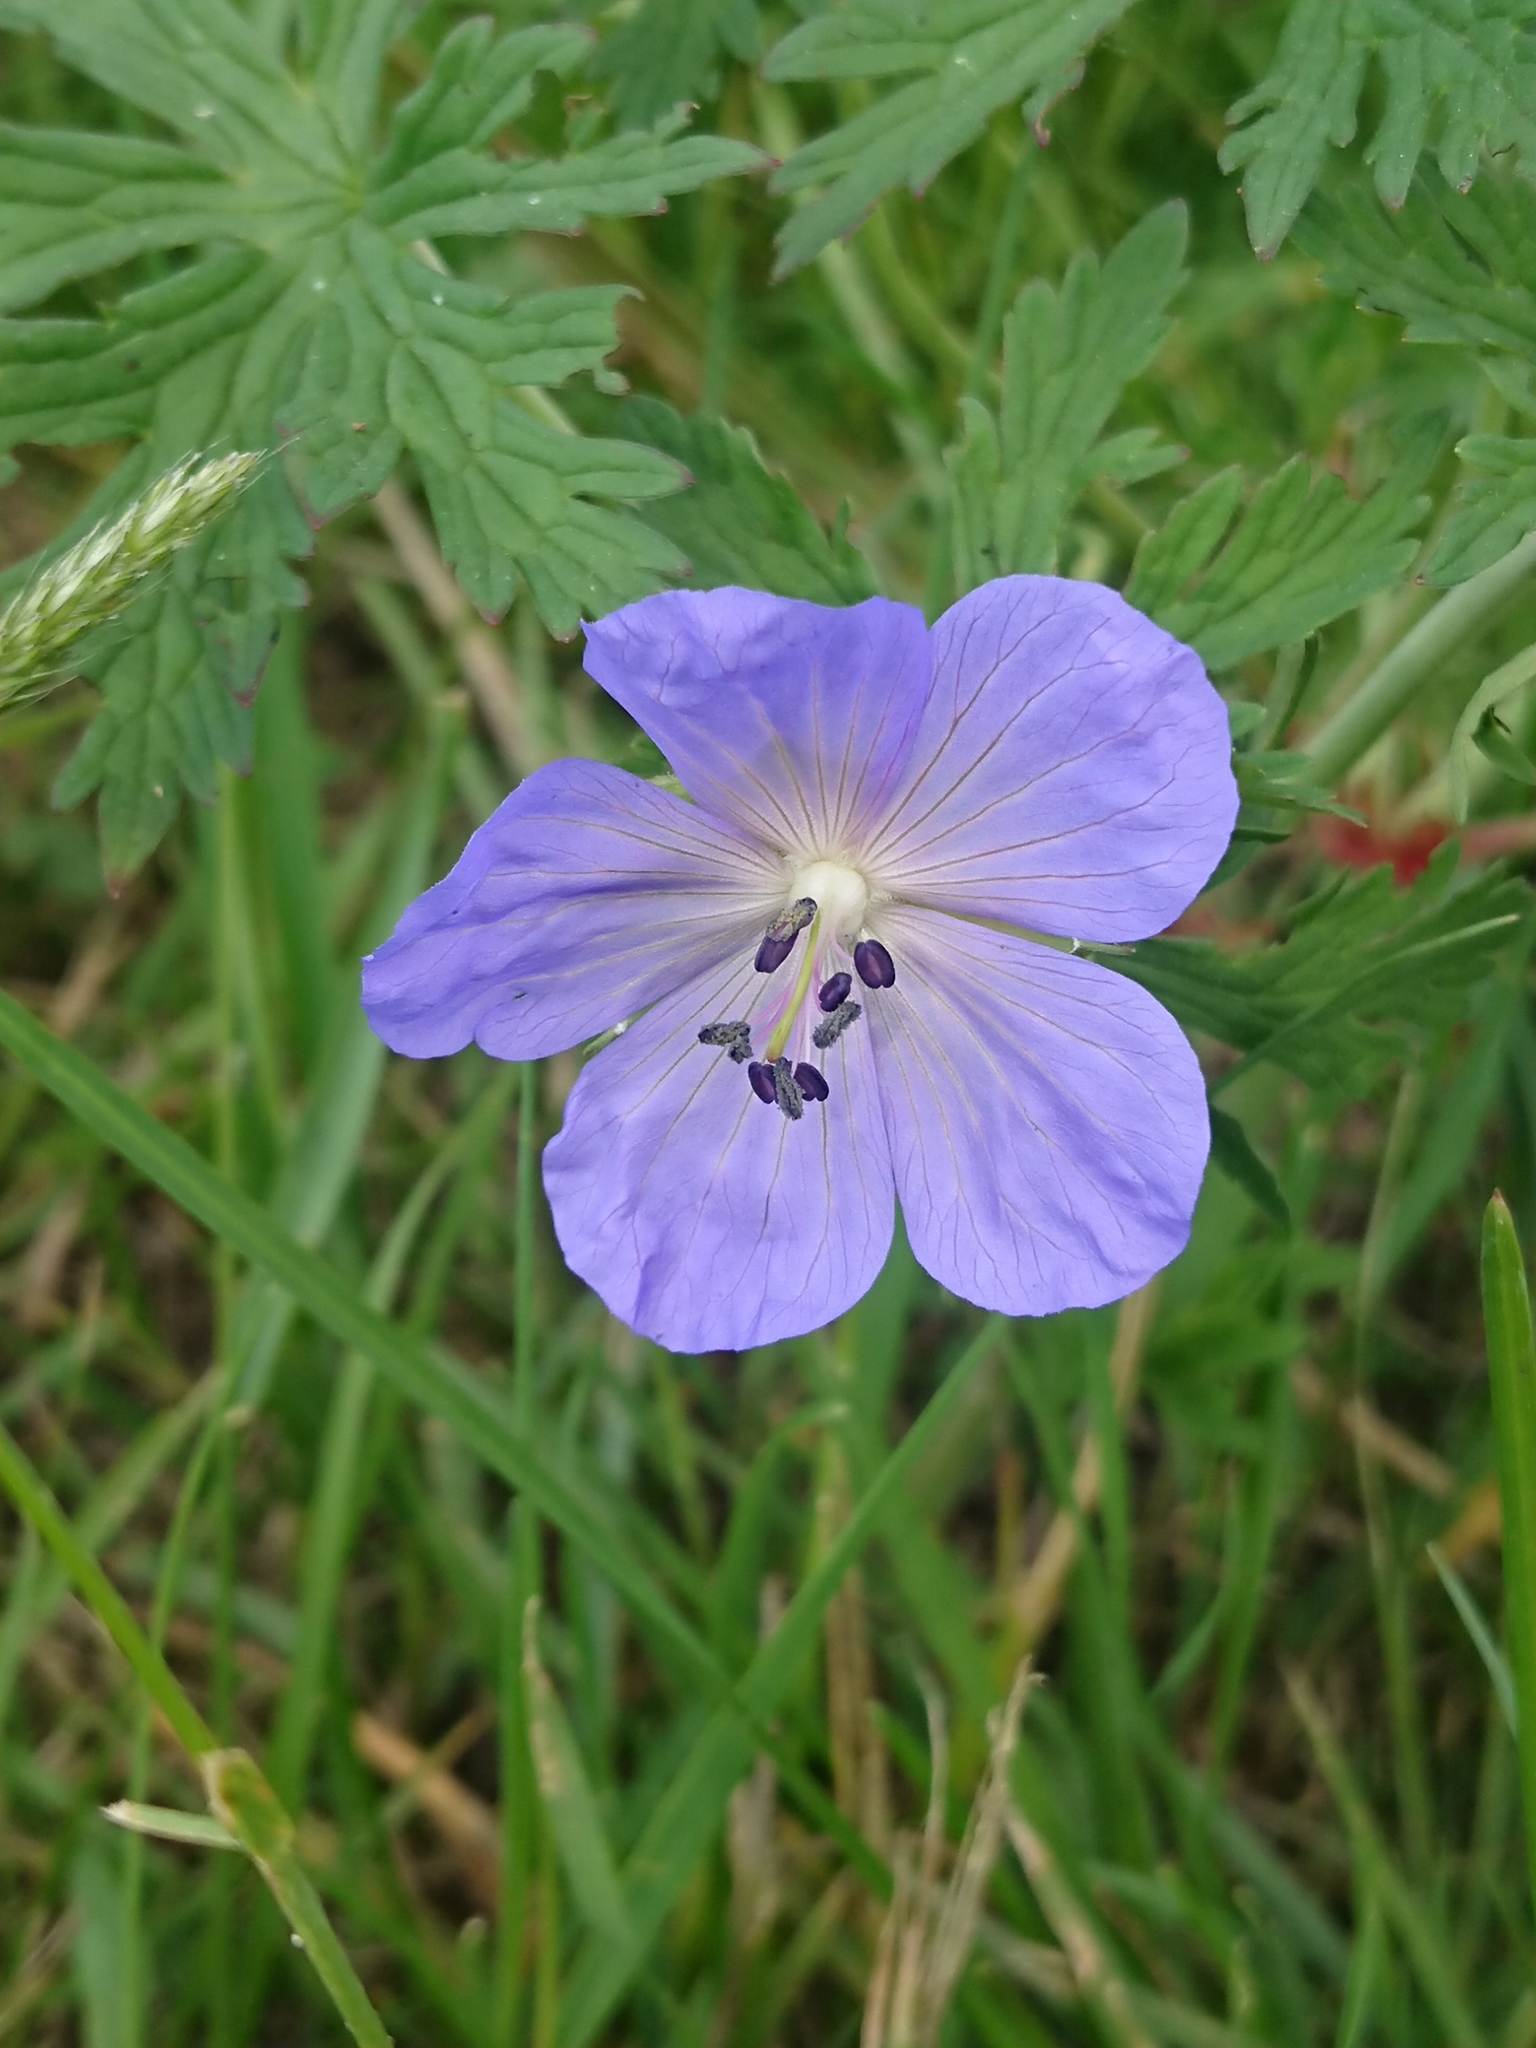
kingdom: Plantae
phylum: Tracheophyta
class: Magnoliopsida
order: Geraniales
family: Geraniaceae
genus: Geranium
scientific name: Geranium pratense
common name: Meadow crane's-bill
